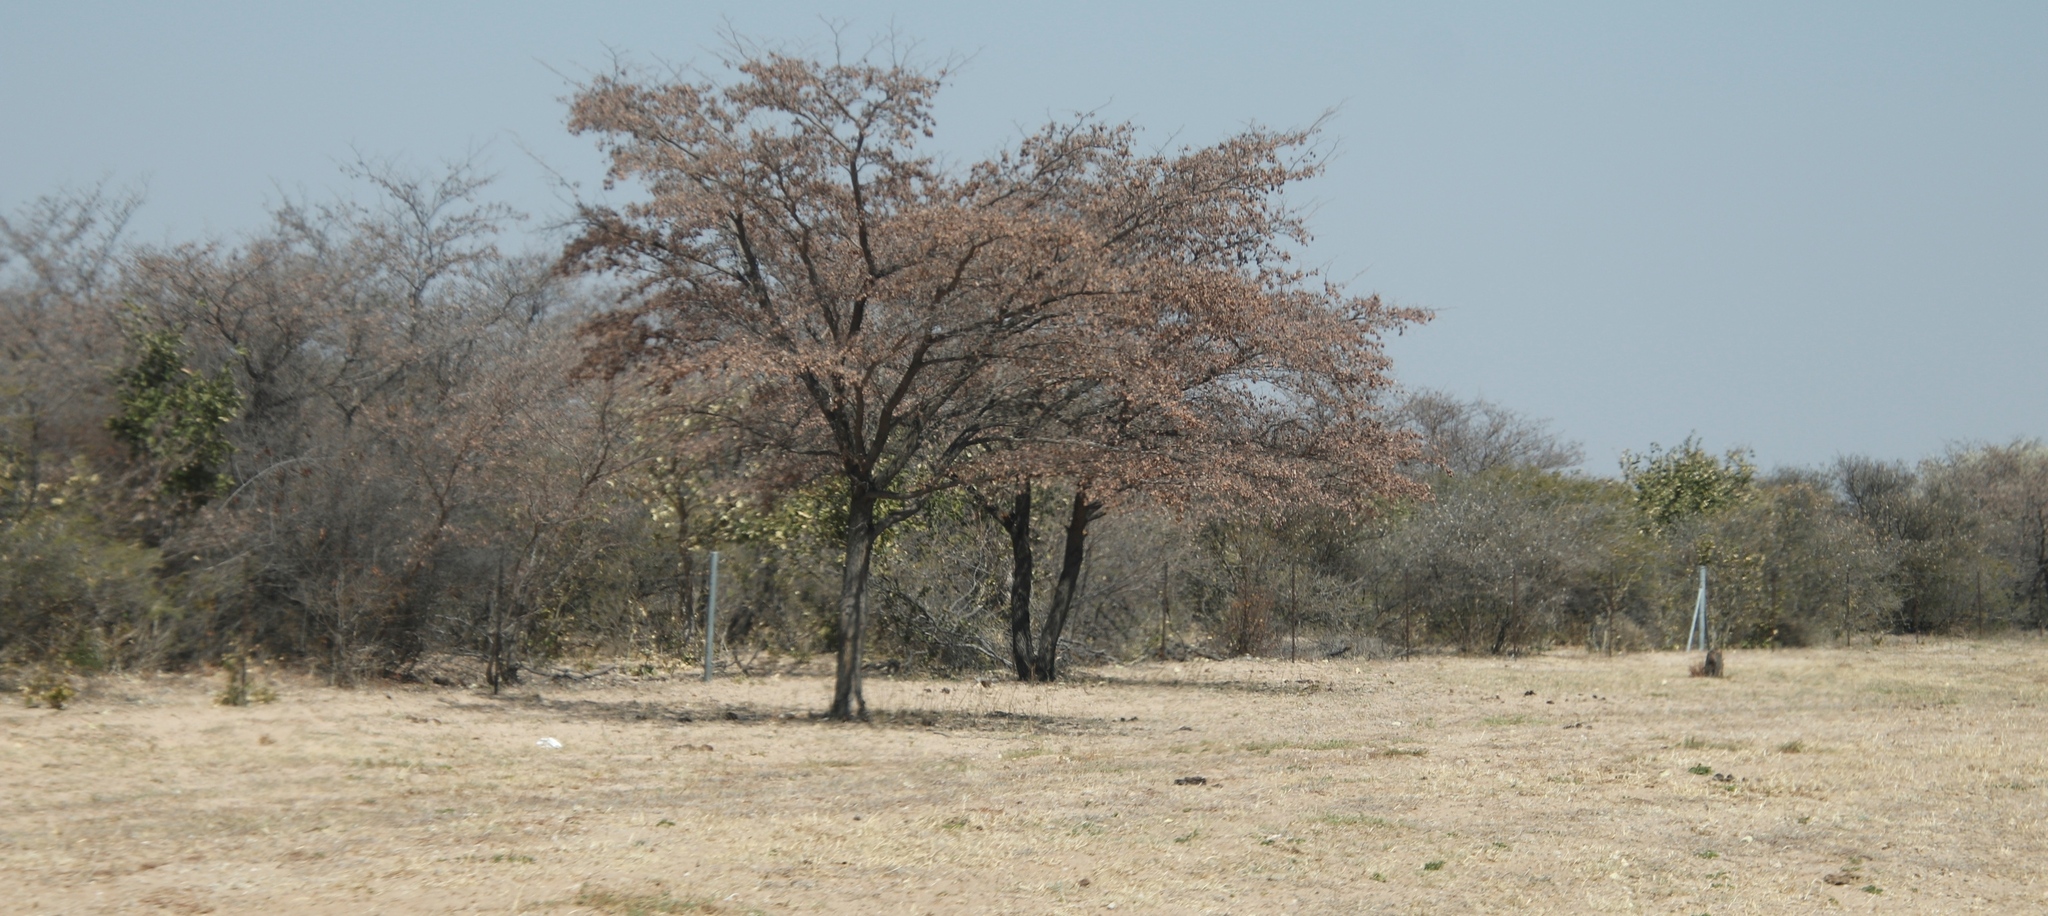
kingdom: Plantae
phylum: Tracheophyta
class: Magnoliopsida
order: Myrtales
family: Combretaceae
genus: Terminalia
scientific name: Terminalia sericea
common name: Clusterleaf
